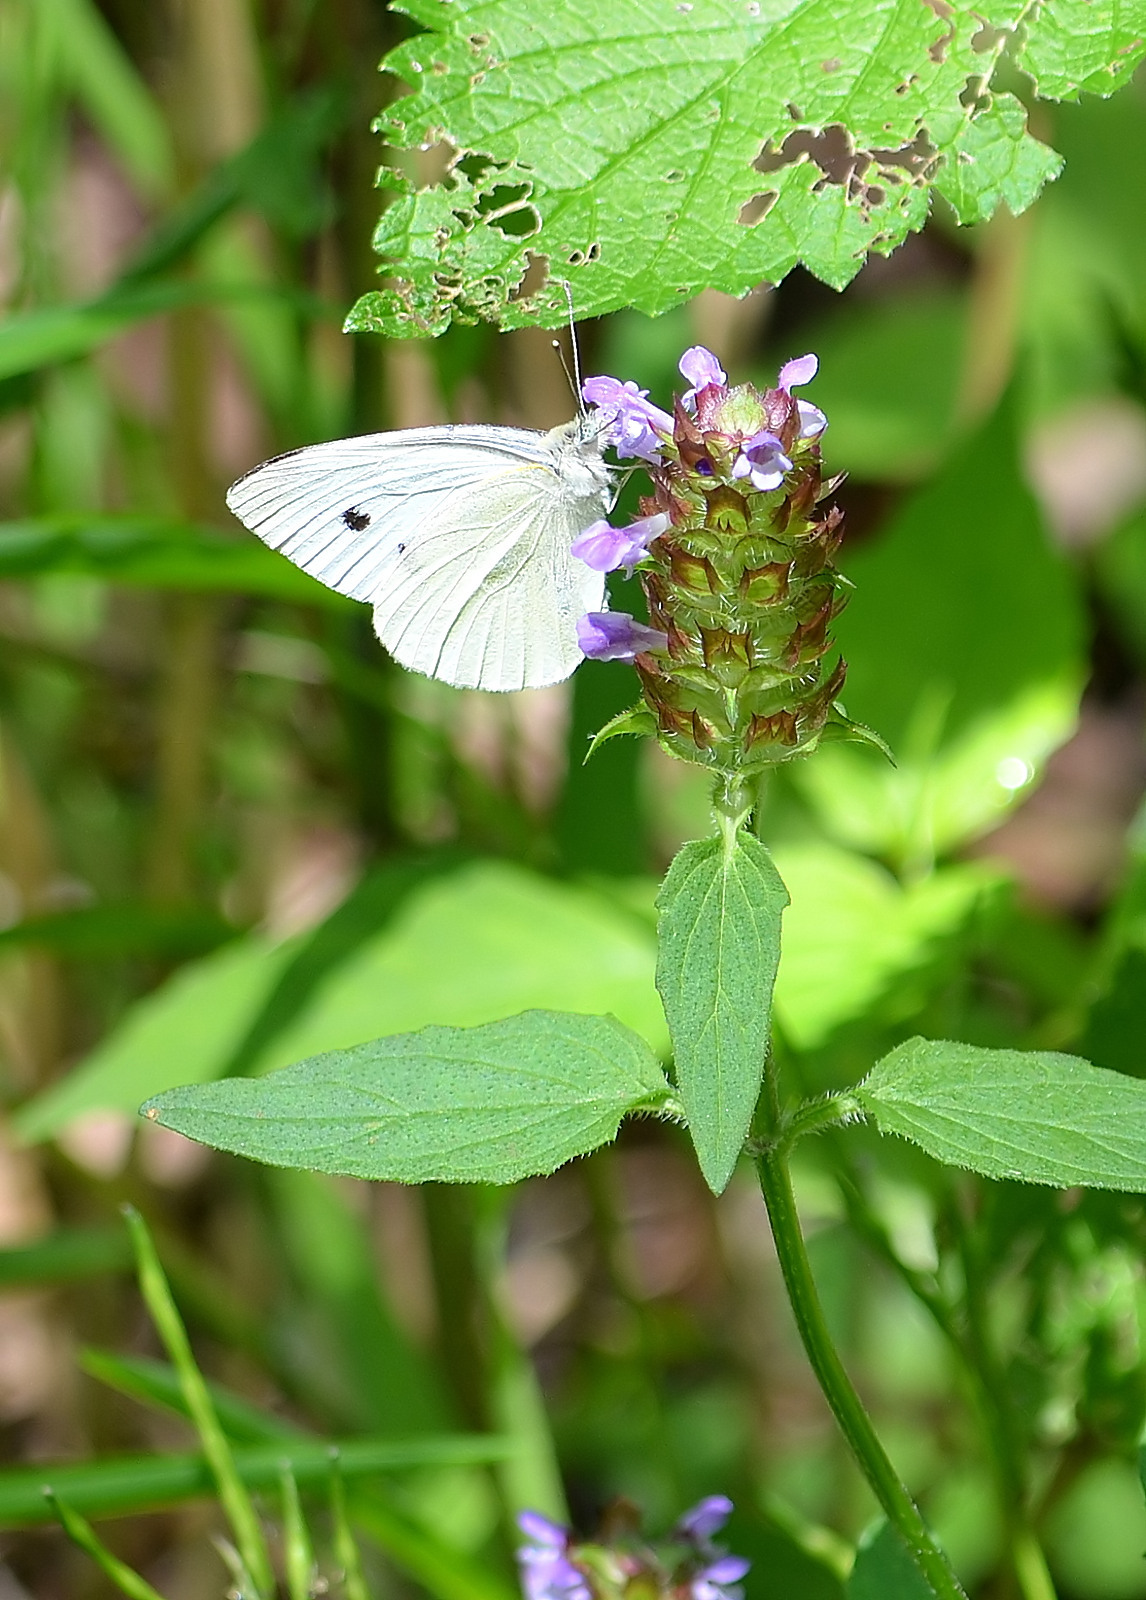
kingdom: Animalia
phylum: Arthropoda
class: Insecta
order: Lepidoptera
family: Pieridae
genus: Pieris
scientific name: Pieris rapae
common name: Small white
